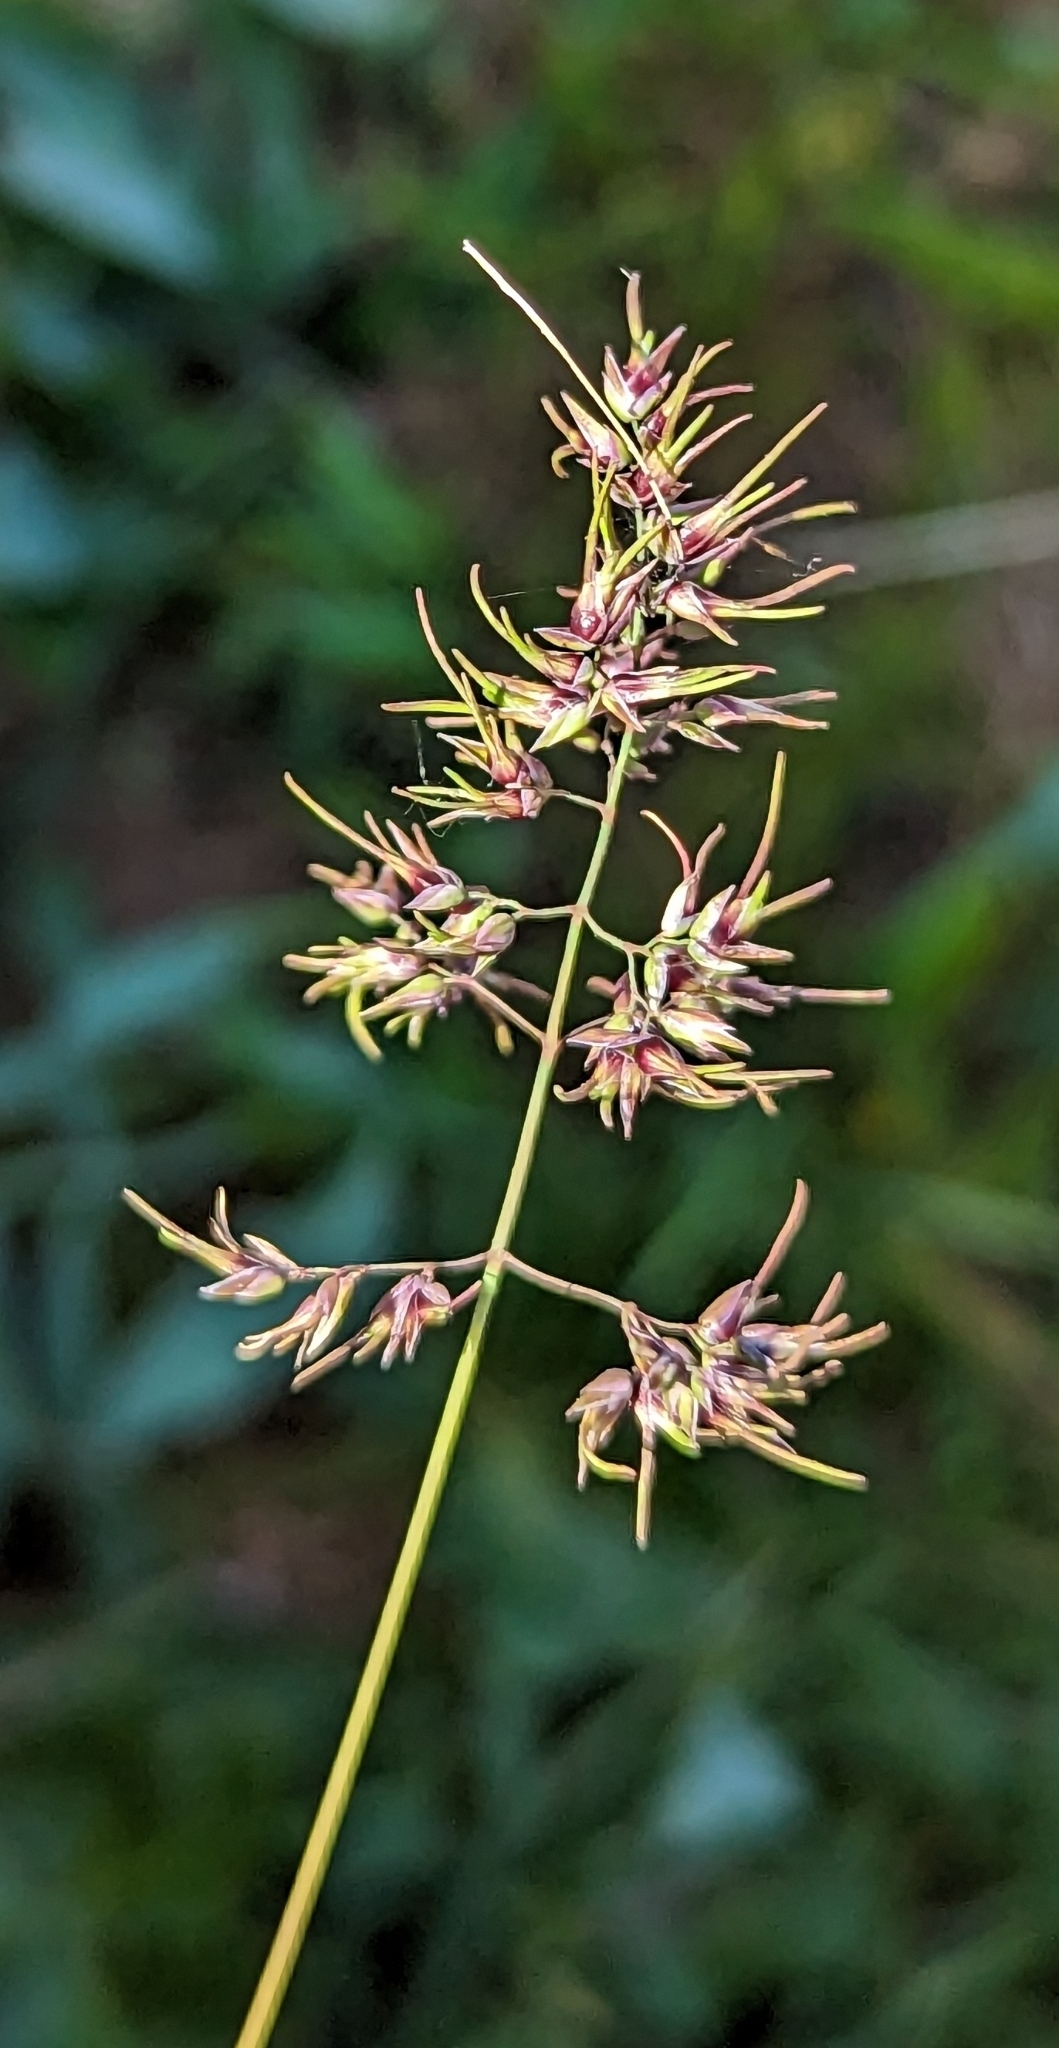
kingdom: Plantae
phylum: Tracheophyta
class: Liliopsida
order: Poales
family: Poaceae
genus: Poa
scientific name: Poa bulbosa
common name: Bulbous bluegrass
